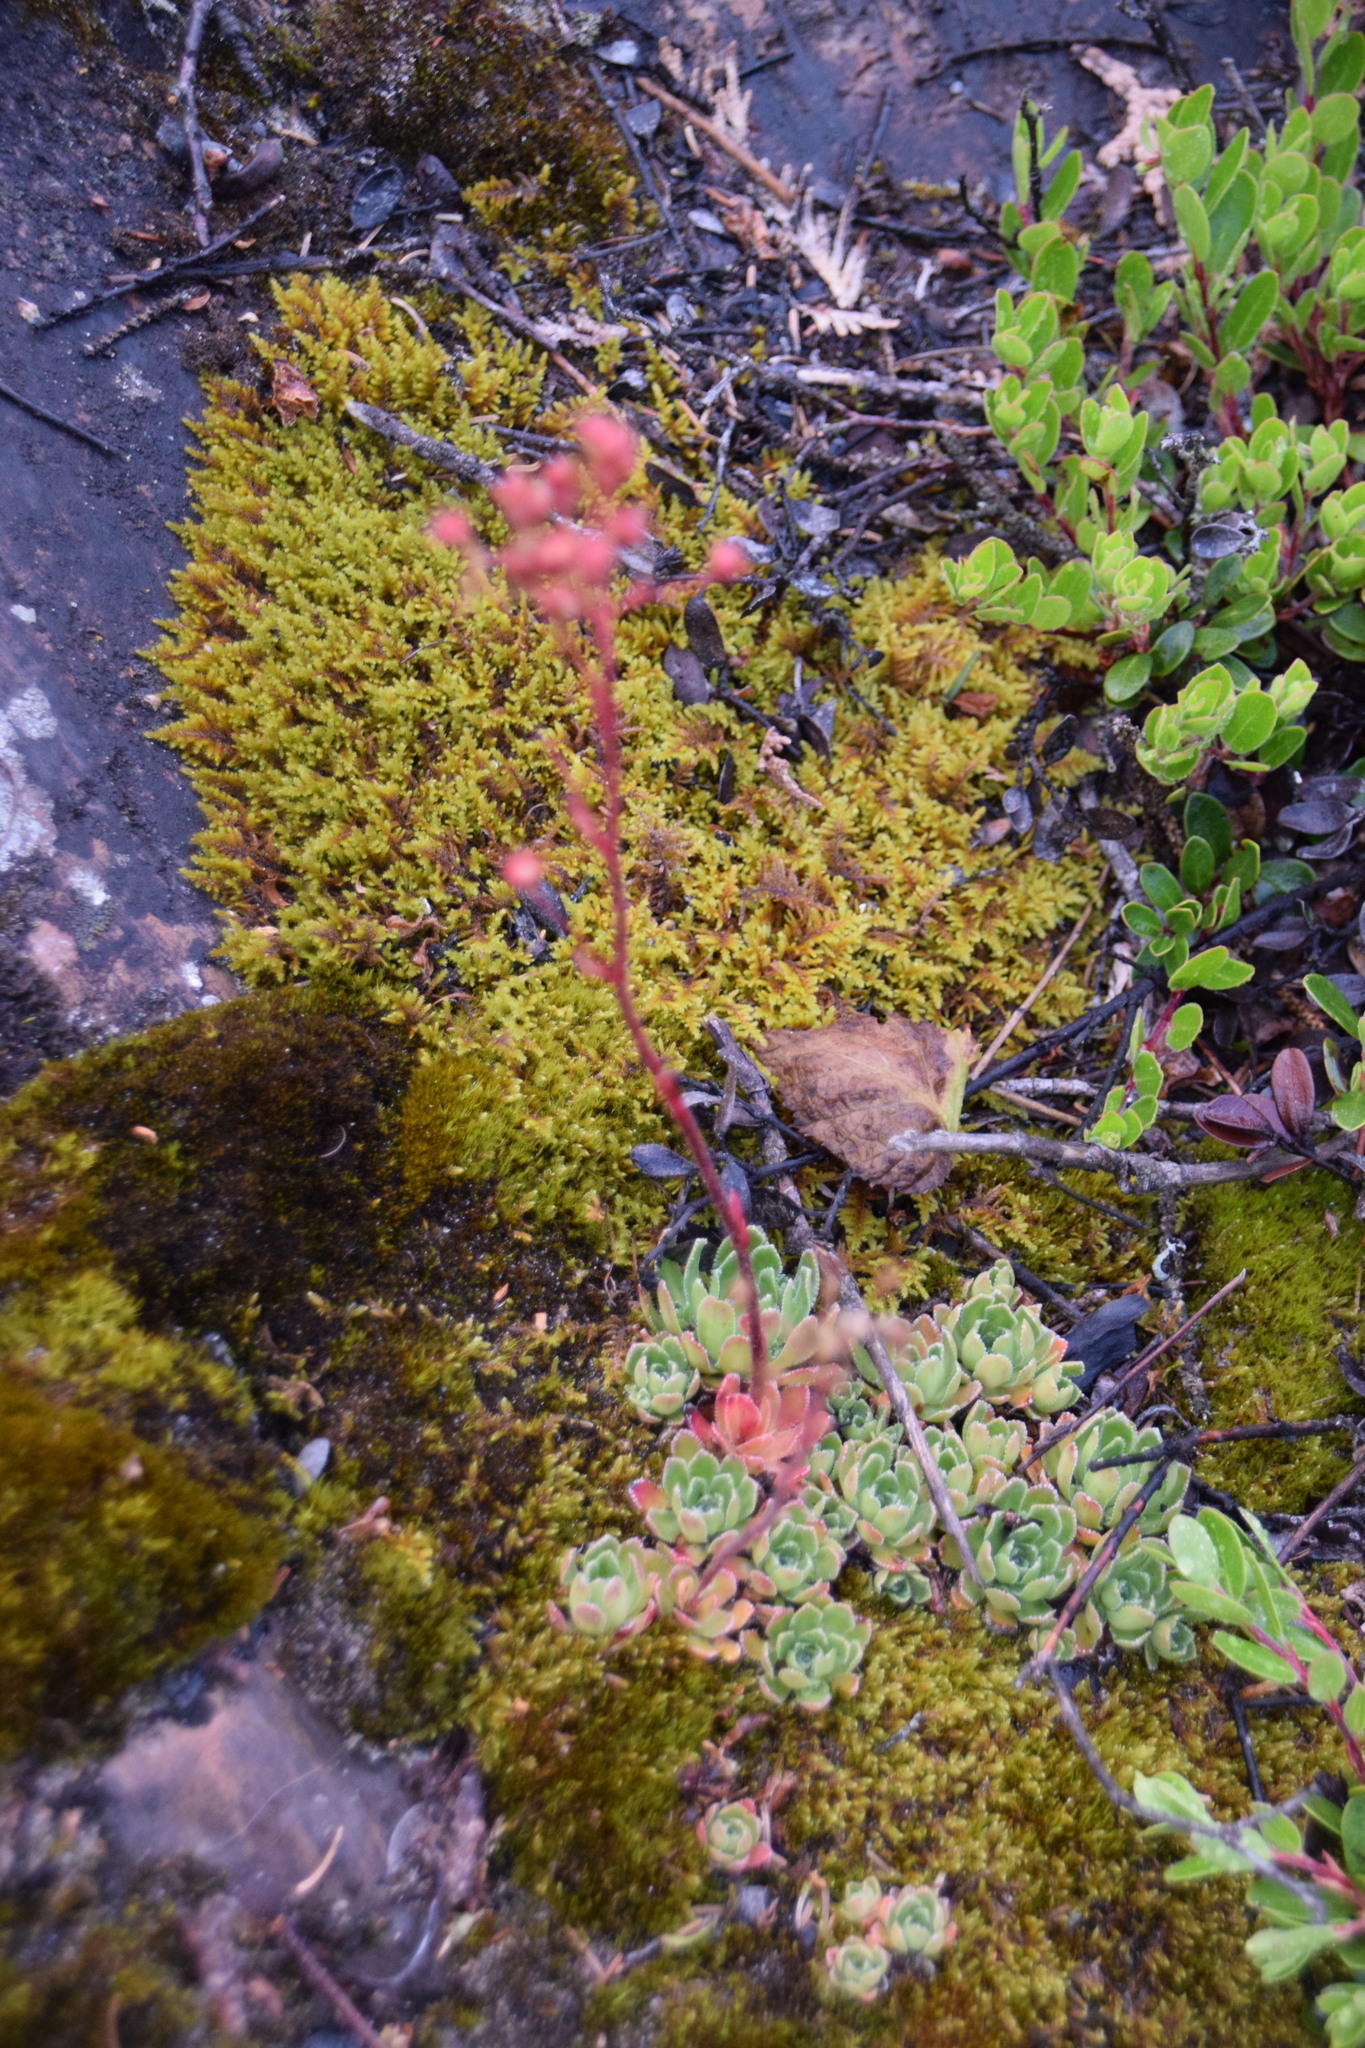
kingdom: Plantae
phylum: Tracheophyta
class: Magnoliopsida
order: Saxifragales
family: Saxifragaceae
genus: Saxifraga
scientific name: Saxifraga paniculata
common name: Livelong saxifrage
